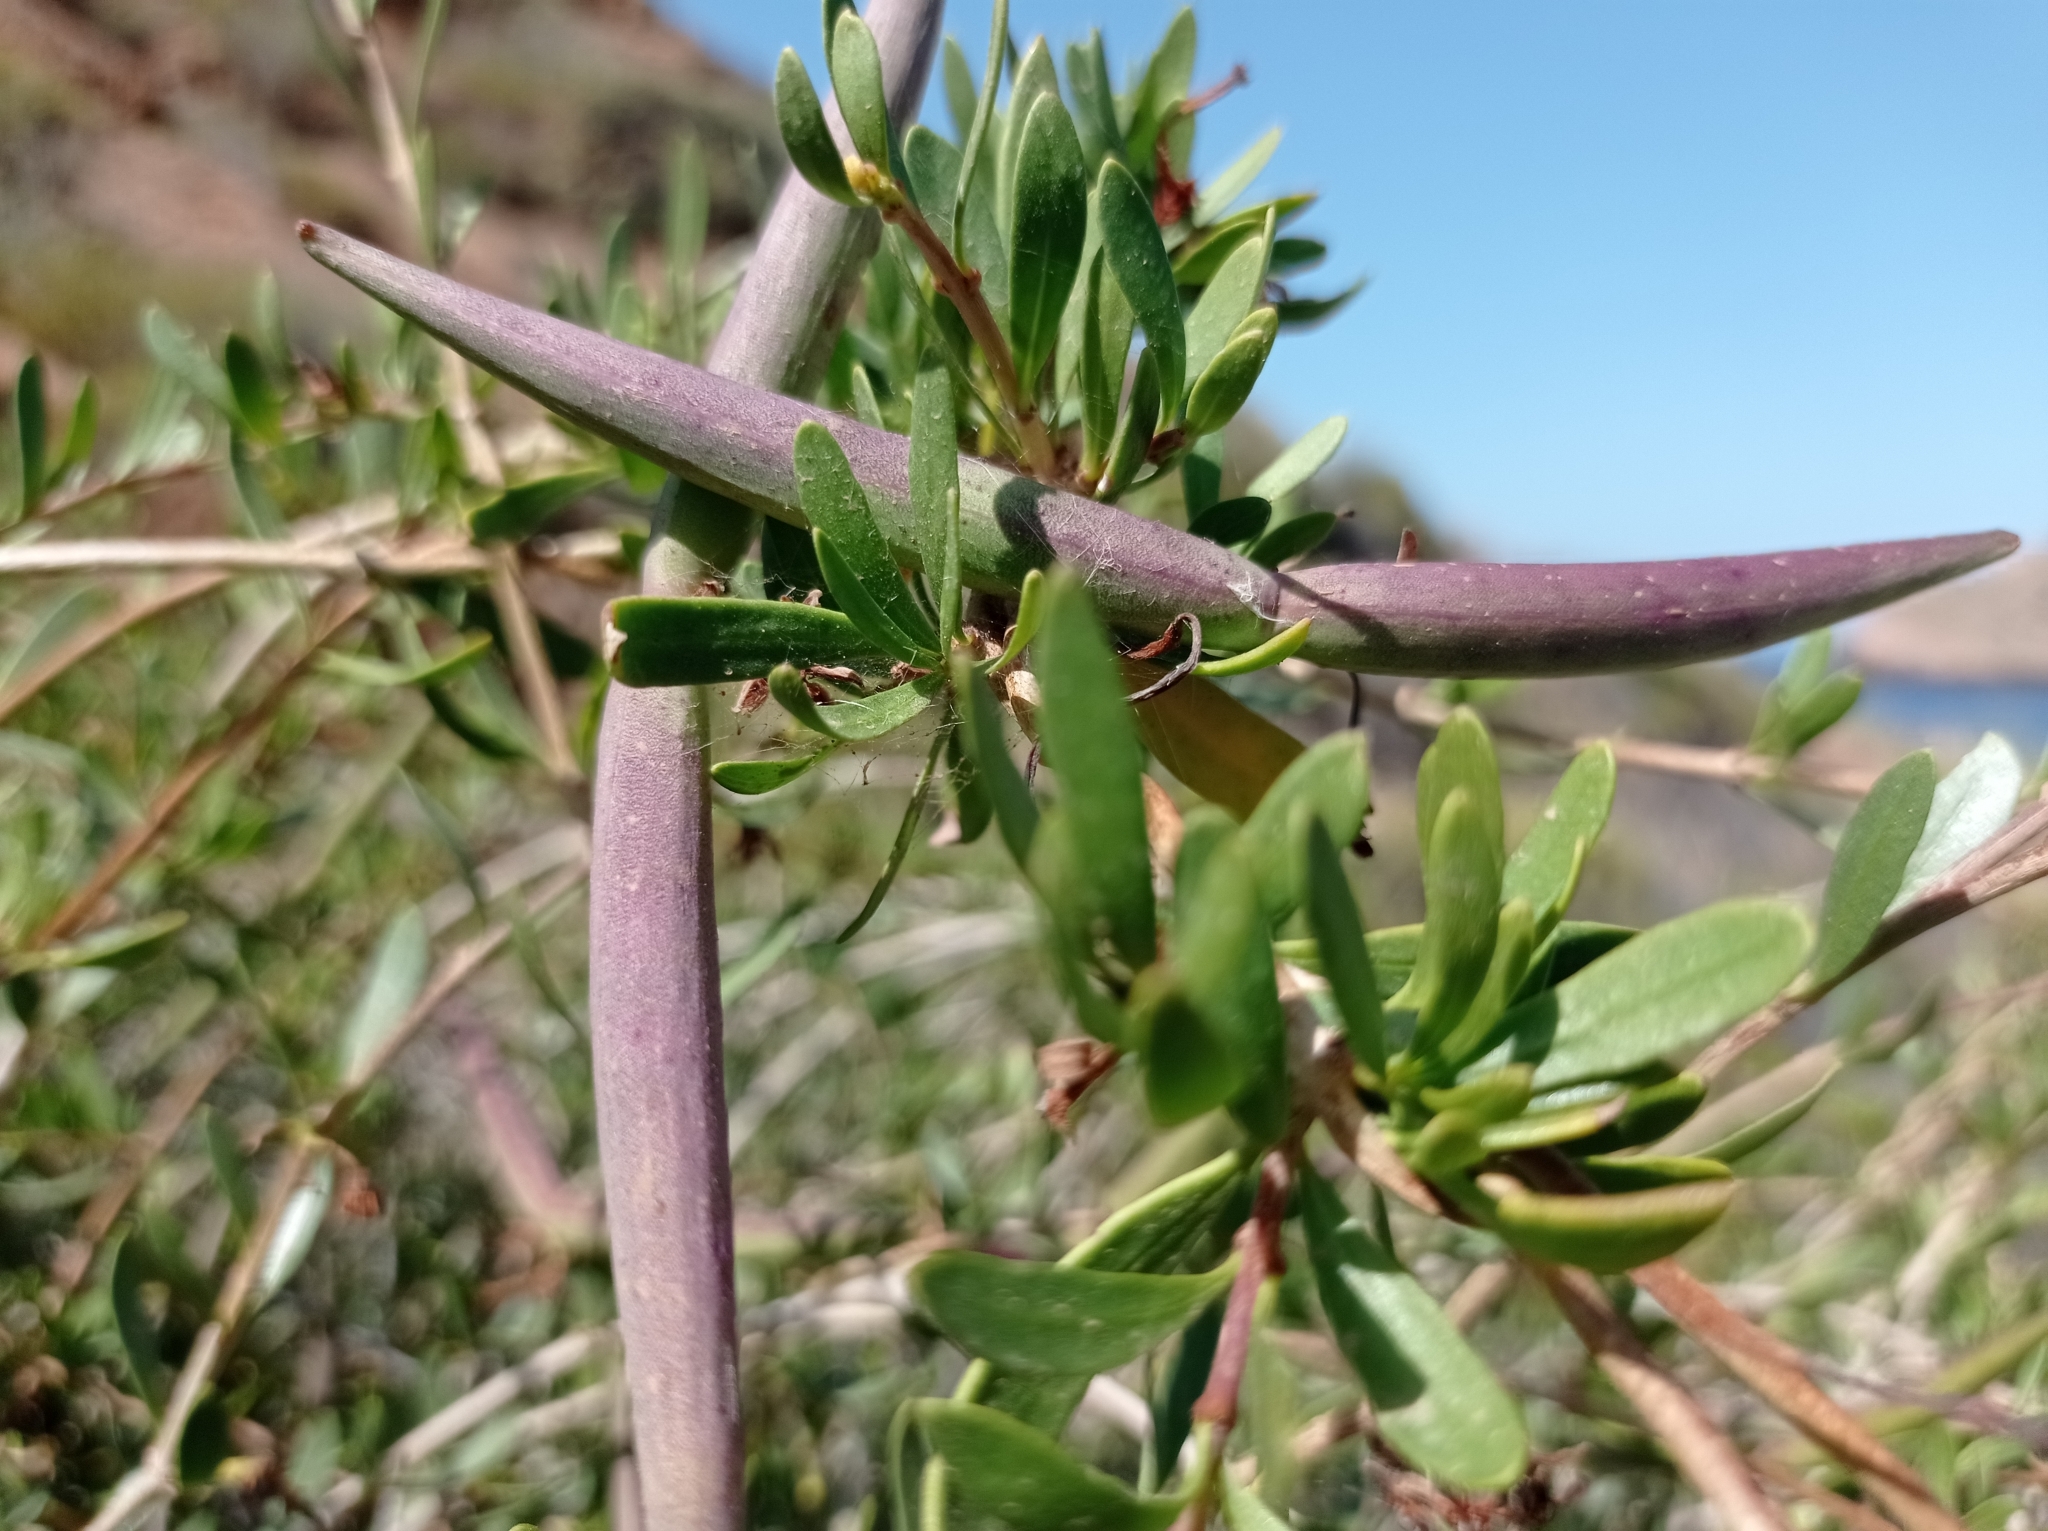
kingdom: Plantae
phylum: Tracheophyta
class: Magnoliopsida
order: Gentianales
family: Apocynaceae
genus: Periploca
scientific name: Periploca laevigata
